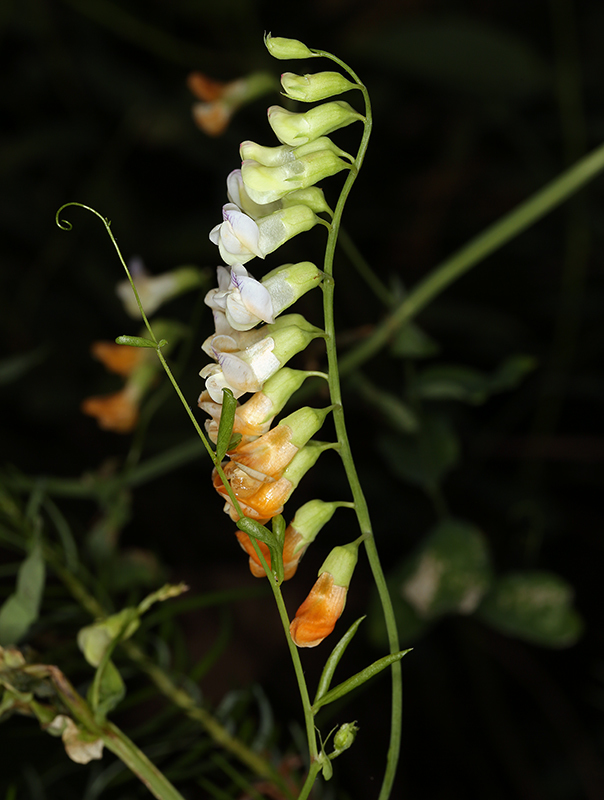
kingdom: Plantae
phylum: Tracheophyta
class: Magnoliopsida
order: Fabales
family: Fabaceae
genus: Lathyrus
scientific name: Lathyrus sulphureus
